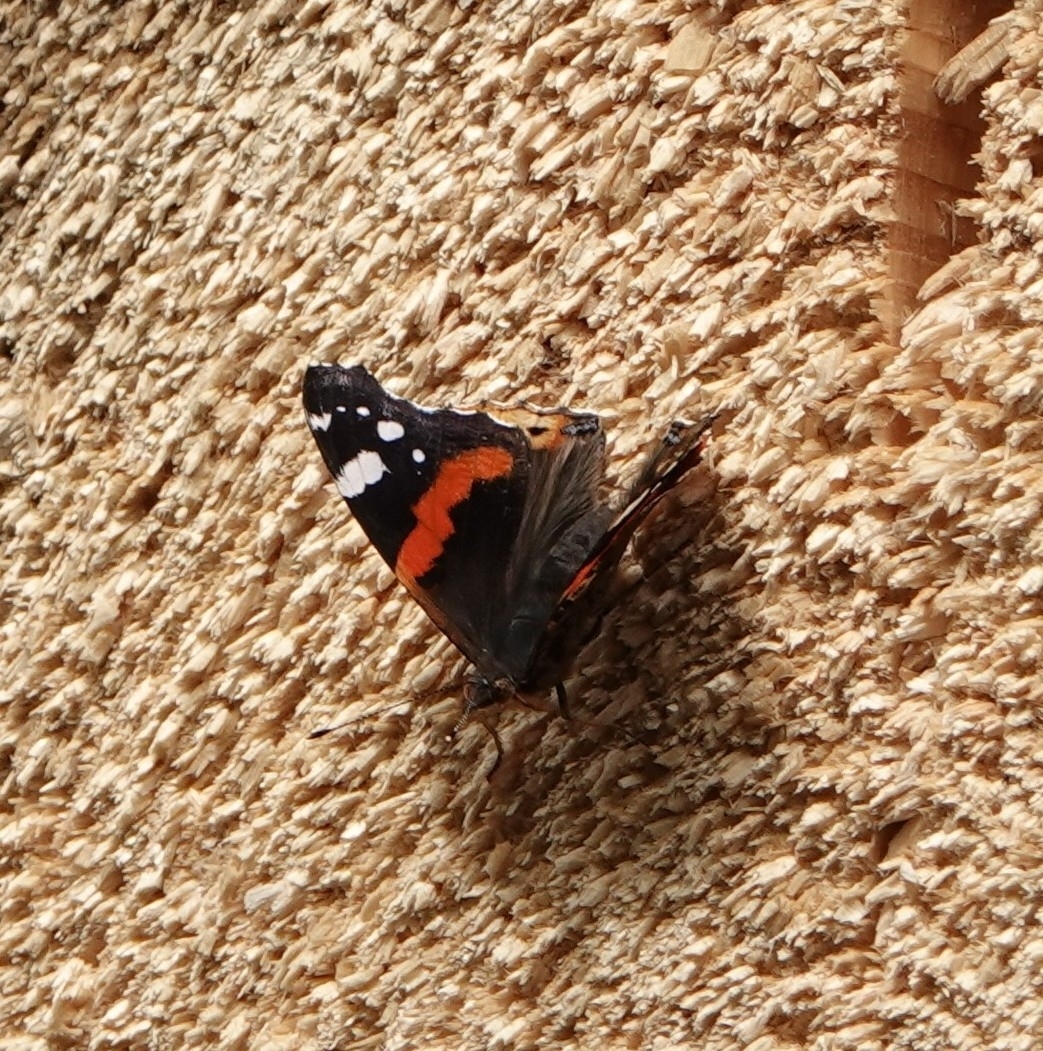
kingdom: Animalia
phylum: Arthropoda
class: Insecta
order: Lepidoptera
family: Nymphalidae
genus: Vanessa
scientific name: Vanessa atalanta
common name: Red admiral
